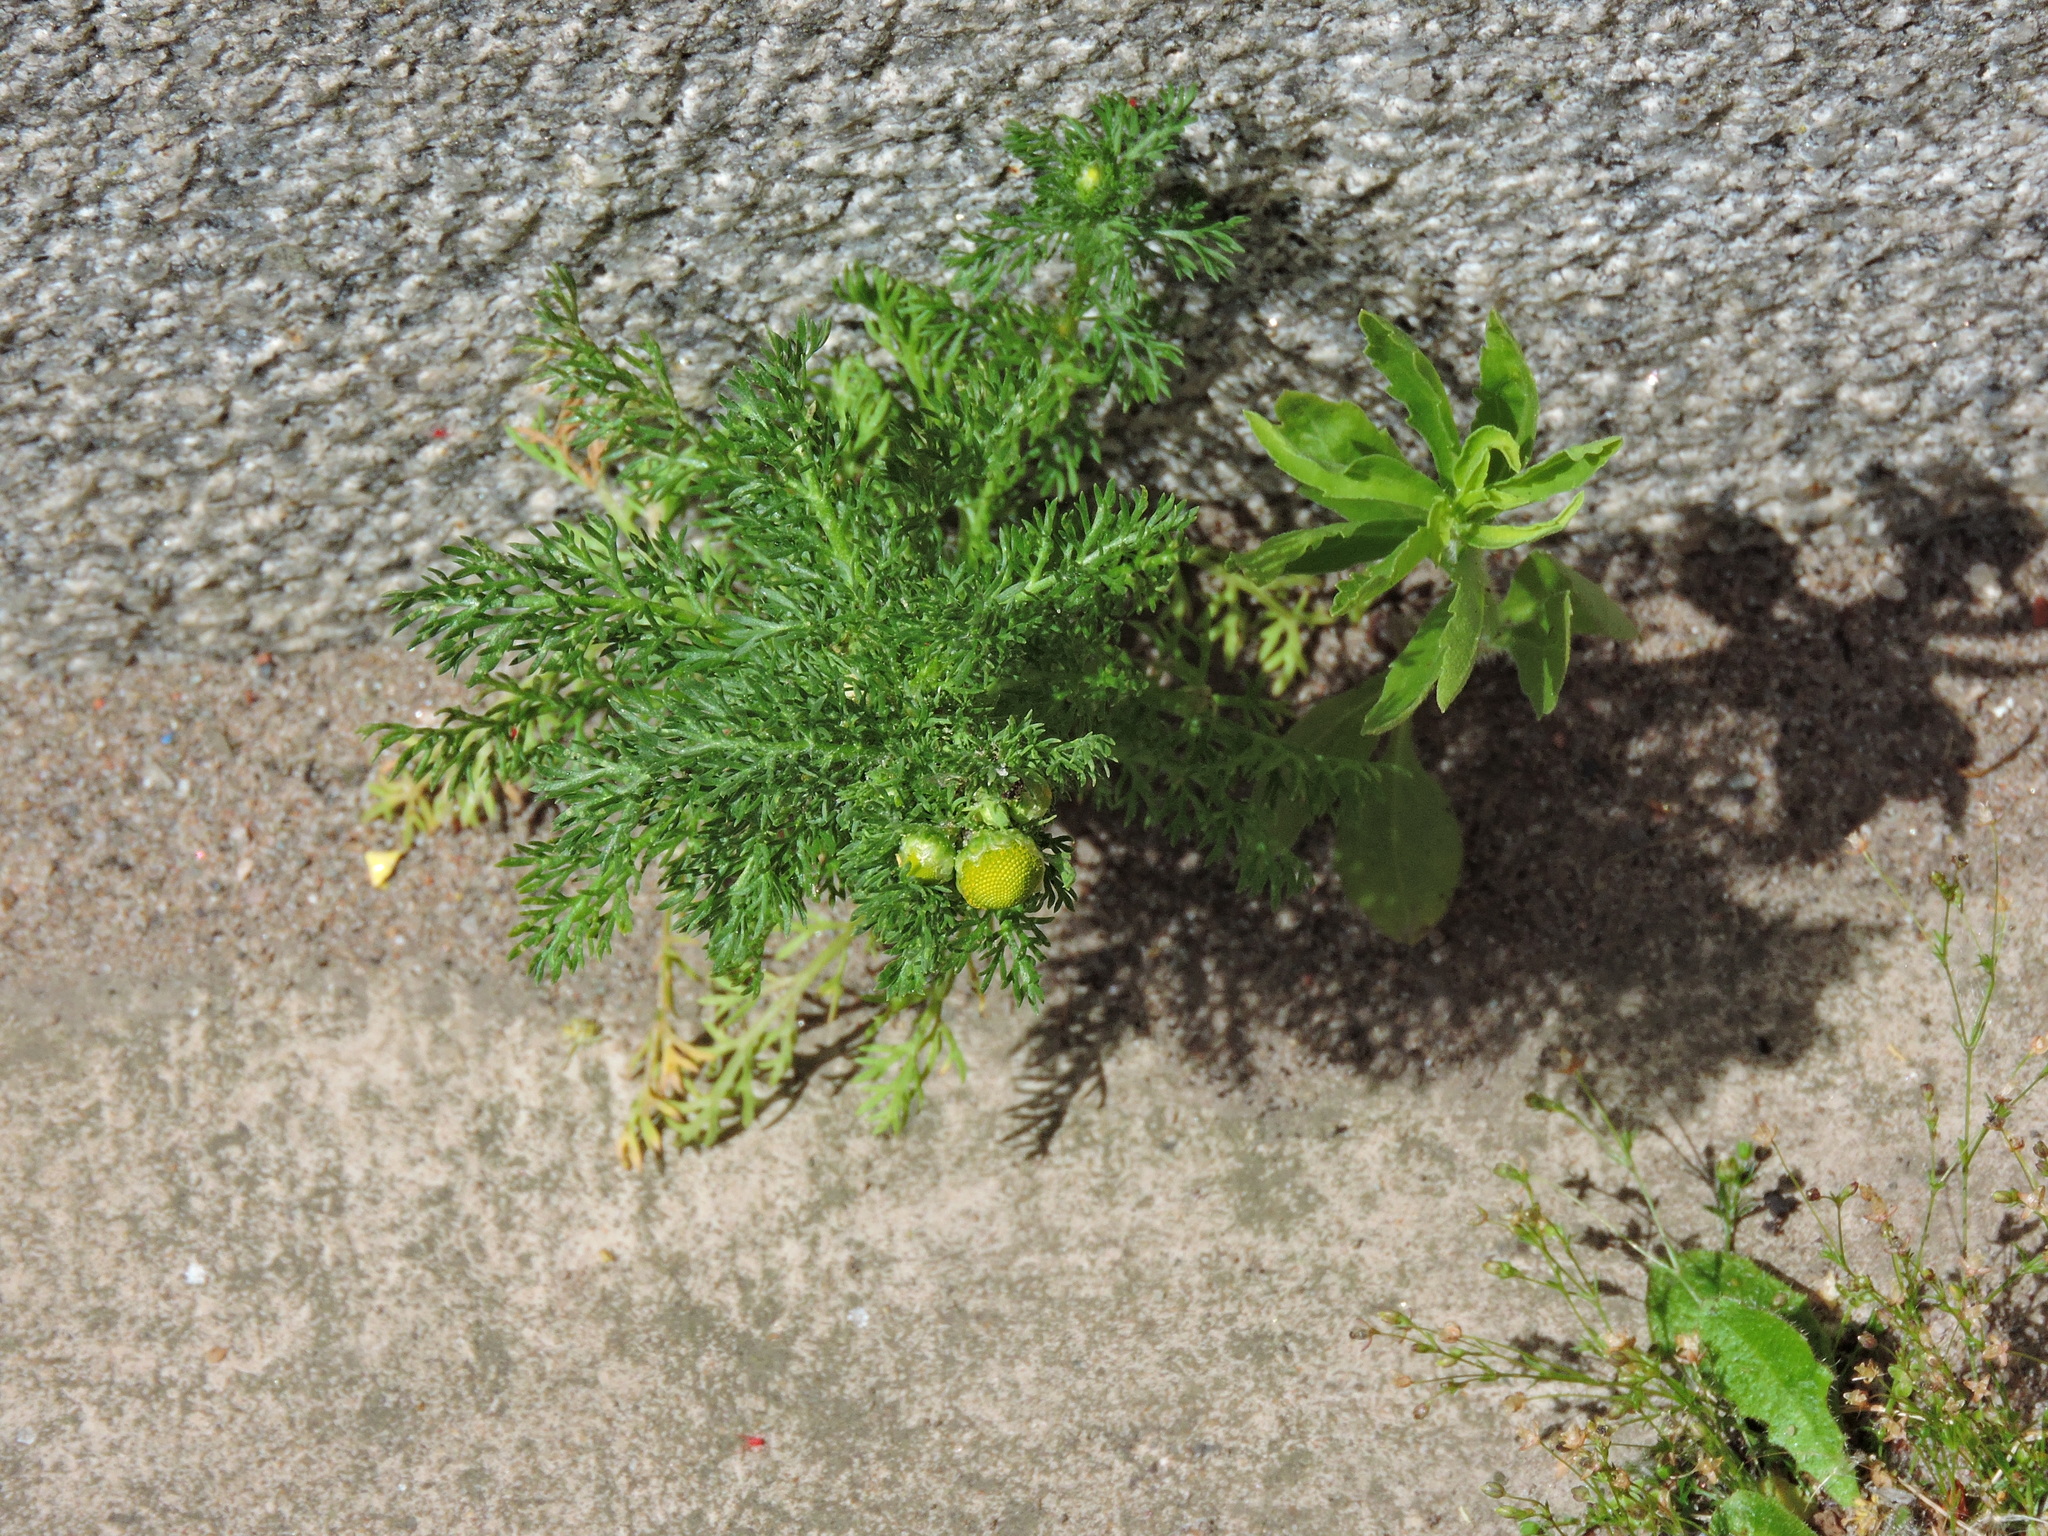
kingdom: Plantae
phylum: Tracheophyta
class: Magnoliopsida
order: Asterales
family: Asteraceae
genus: Matricaria
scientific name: Matricaria discoidea
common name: Disc mayweed
